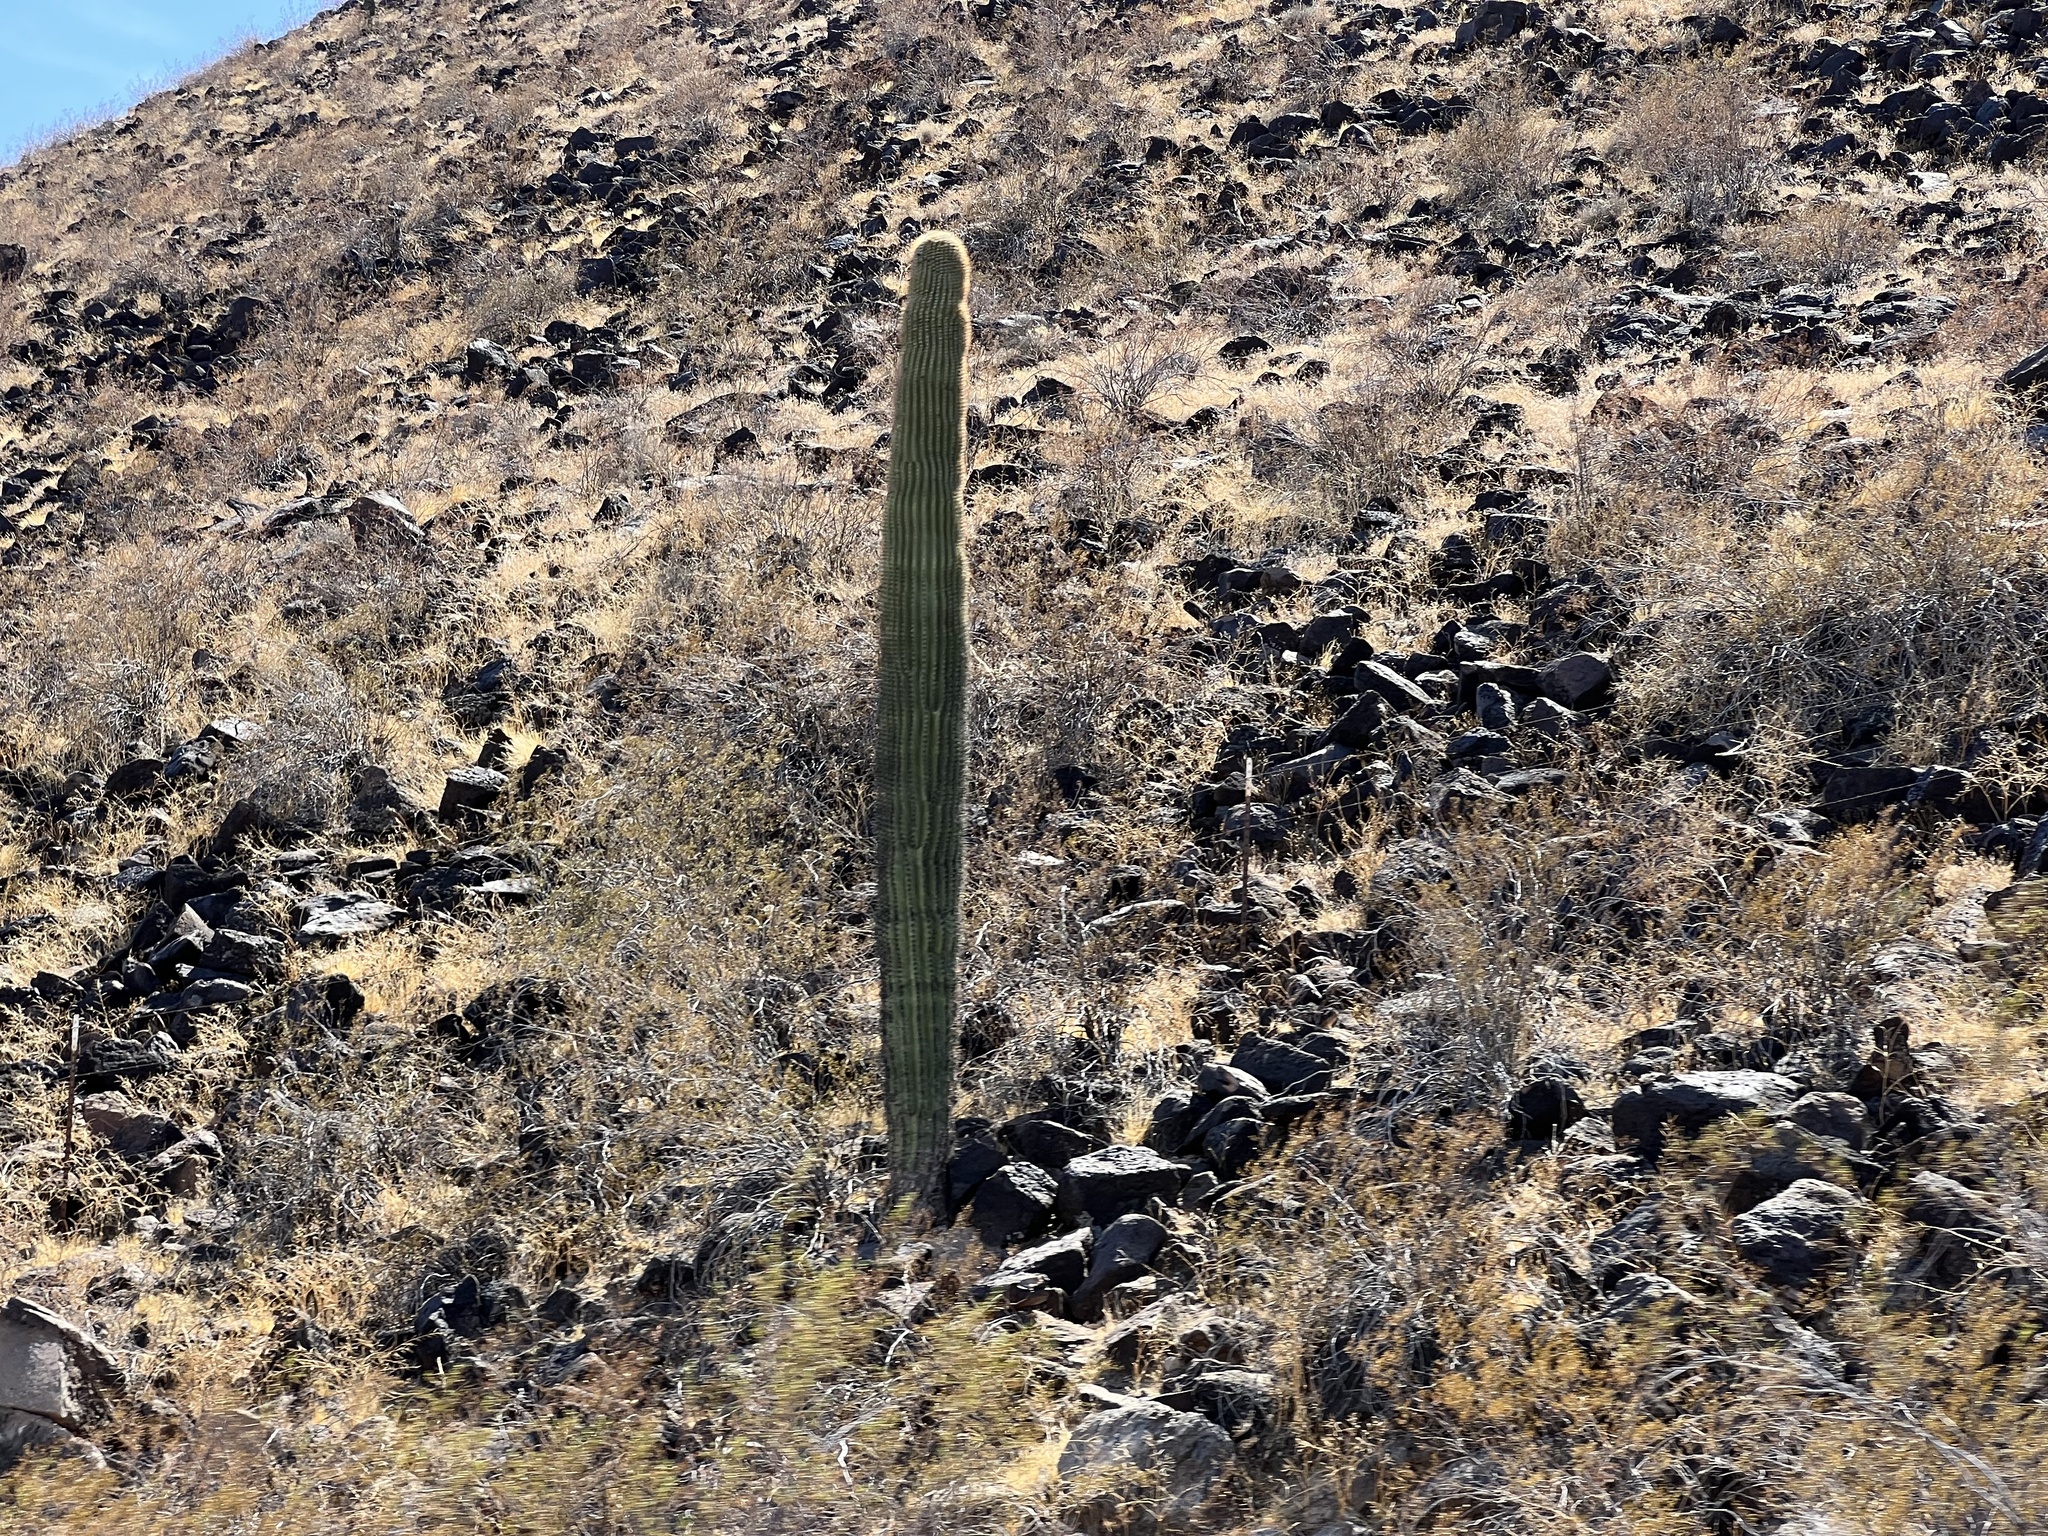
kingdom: Plantae
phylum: Tracheophyta
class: Magnoliopsida
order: Caryophyllales
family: Cactaceae
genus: Carnegiea
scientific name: Carnegiea gigantea
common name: Saguaro
